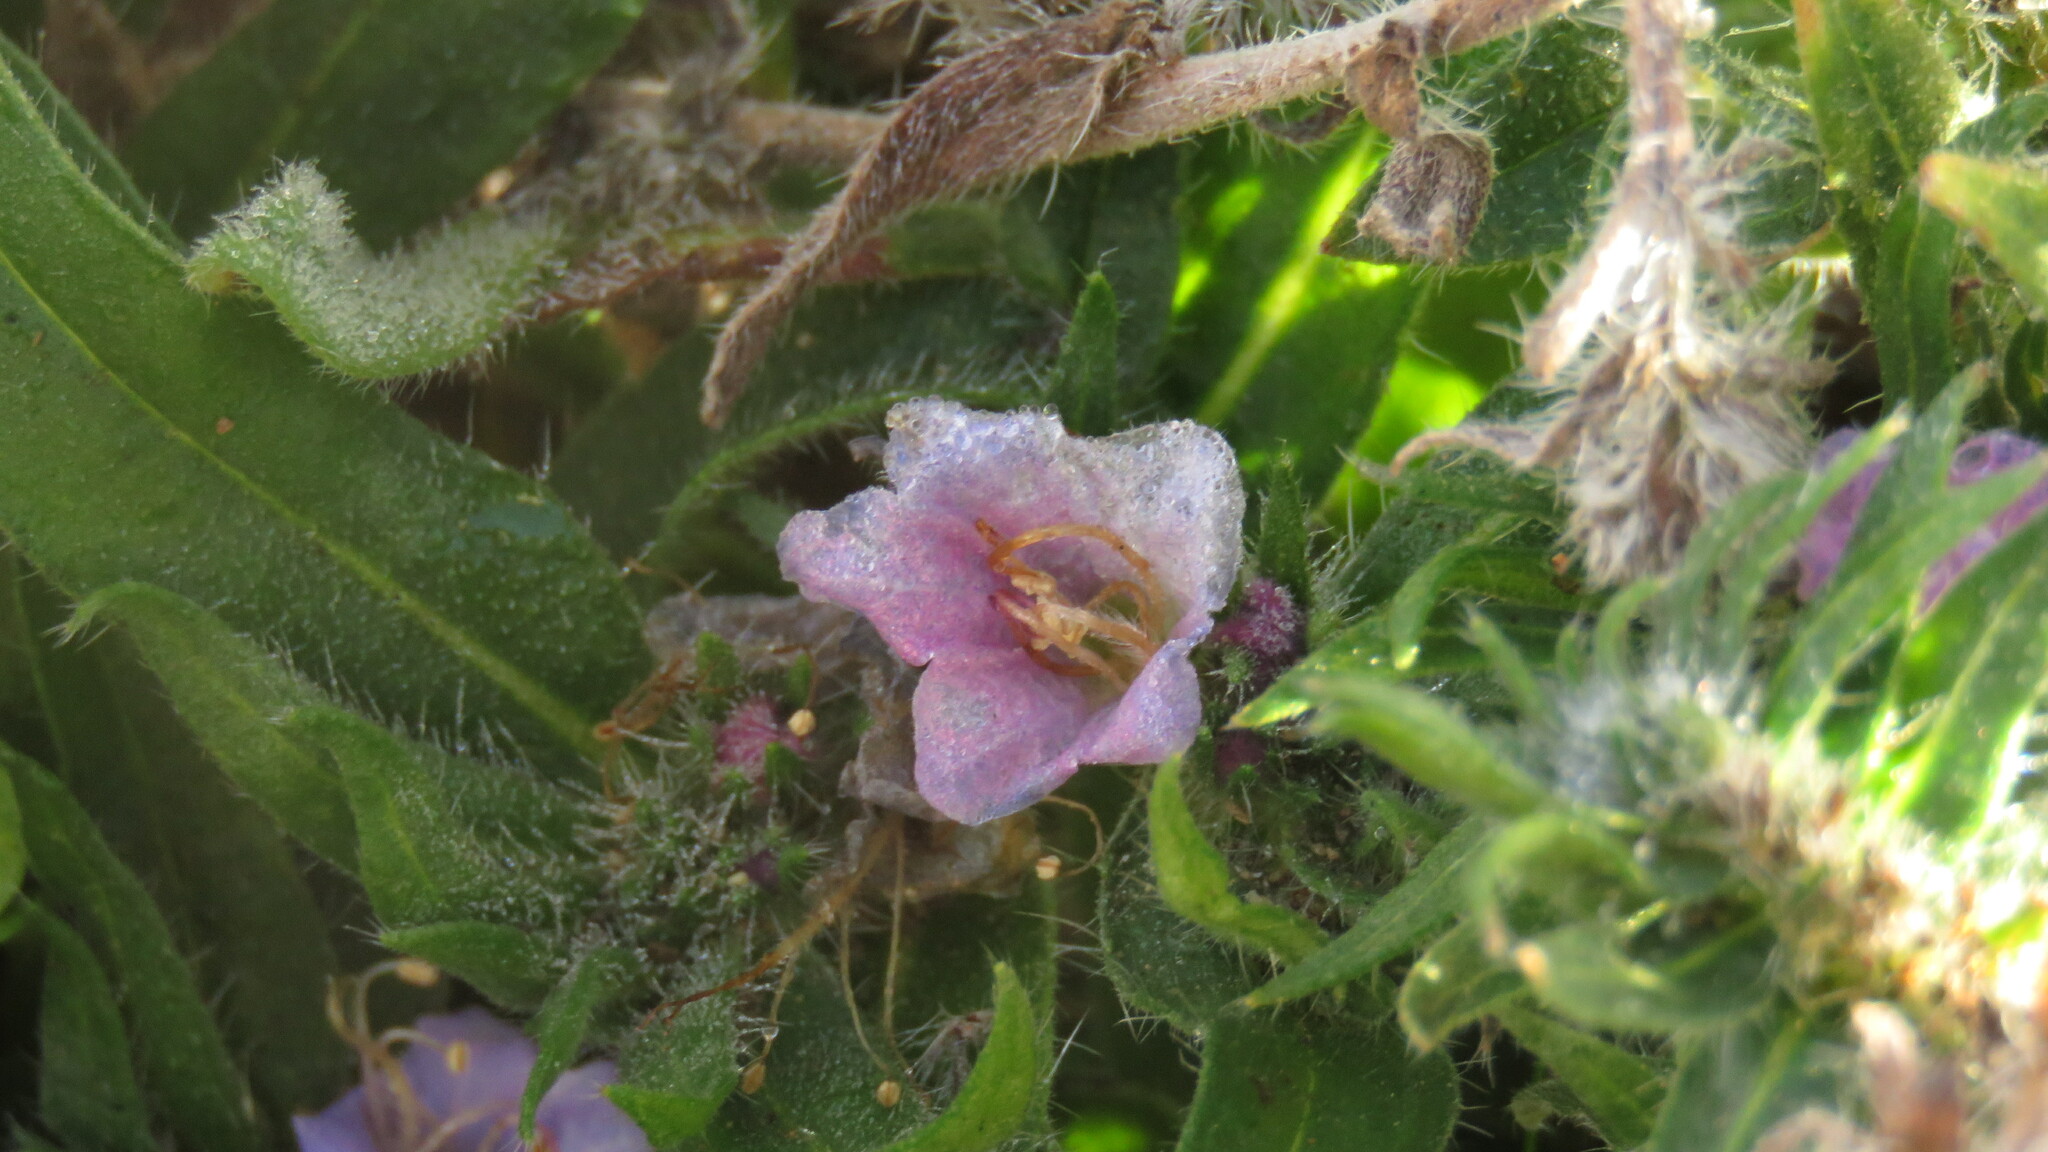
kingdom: Plantae
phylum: Tracheophyta
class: Magnoliopsida
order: Boraginales
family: Boraginaceae
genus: Echium
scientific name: Echium vulgare
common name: Common viper's bugloss
